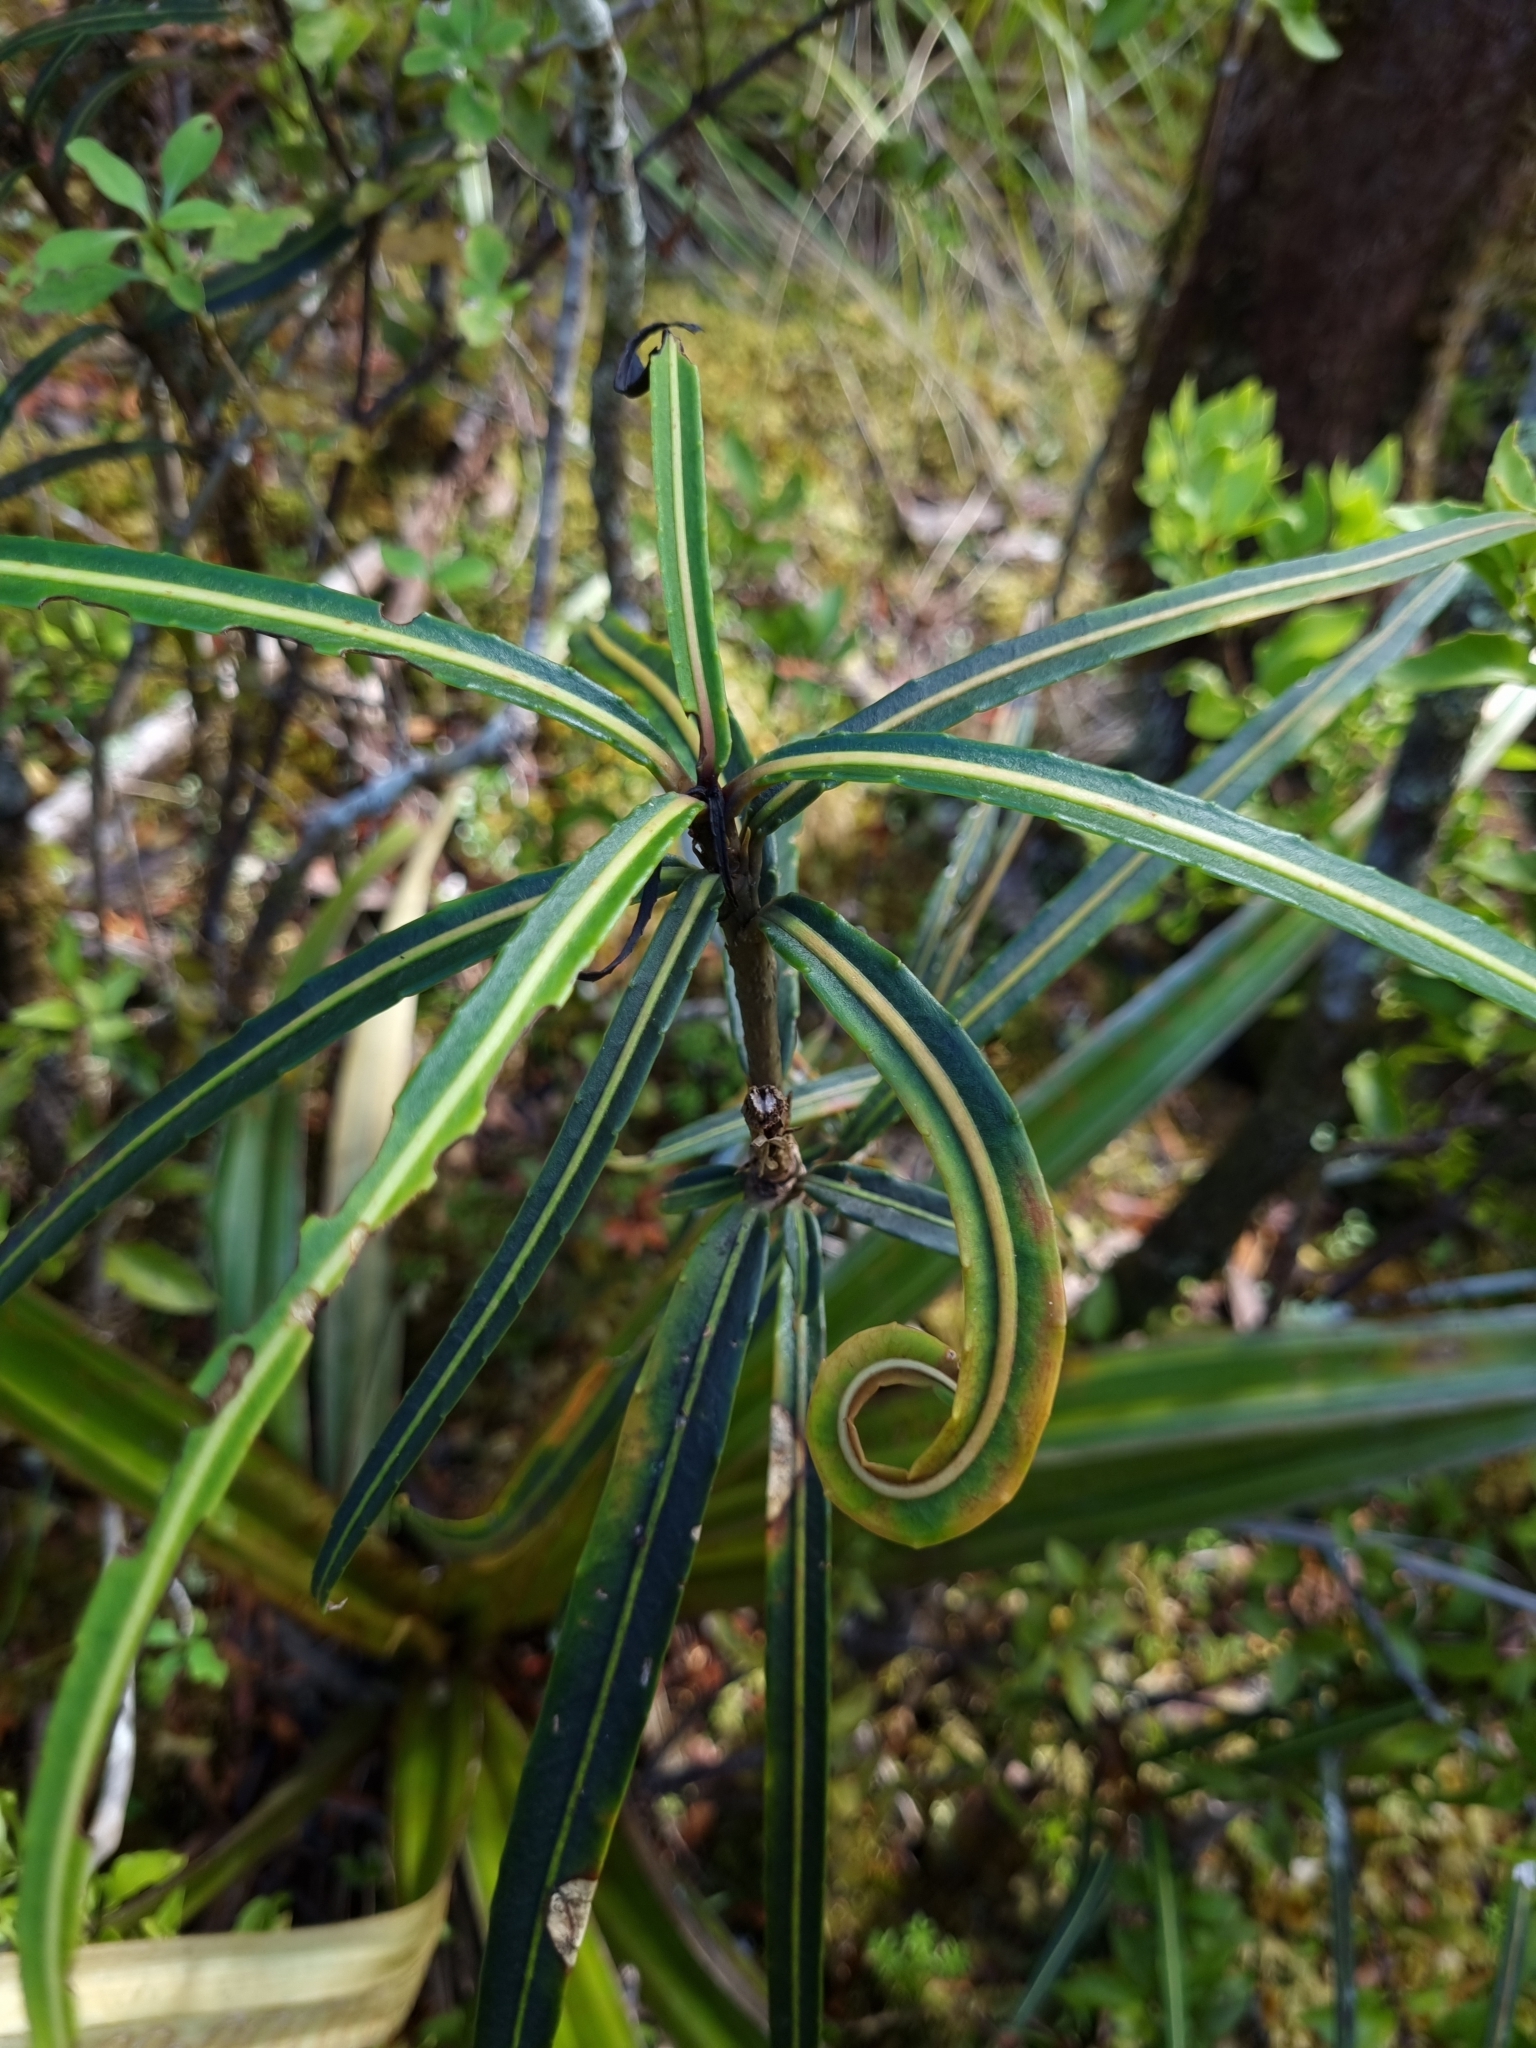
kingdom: Plantae
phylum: Tracheophyta
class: Magnoliopsida
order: Apiales
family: Araliaceae
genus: Pseudopanax
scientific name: Pseudopanax linearis
